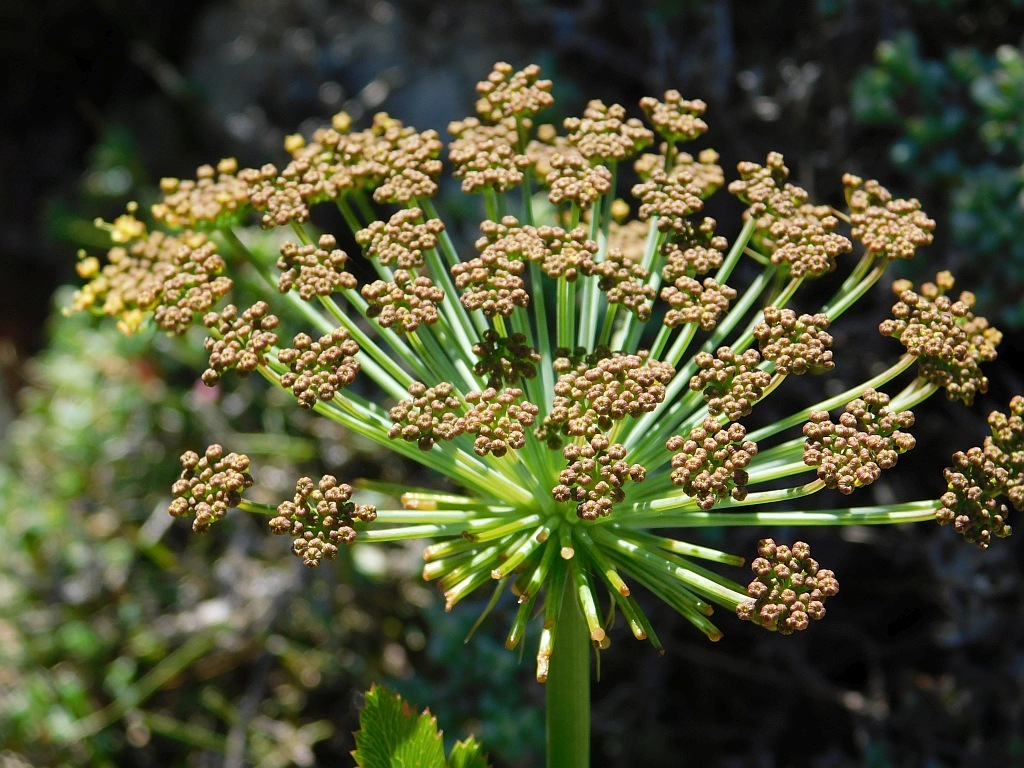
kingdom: Plantae
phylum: Tracheophyta
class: Magnoliopsida
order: Apiales
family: Apiaceae
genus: Notobubon
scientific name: Notobubon galbanum
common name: Blisterbush
